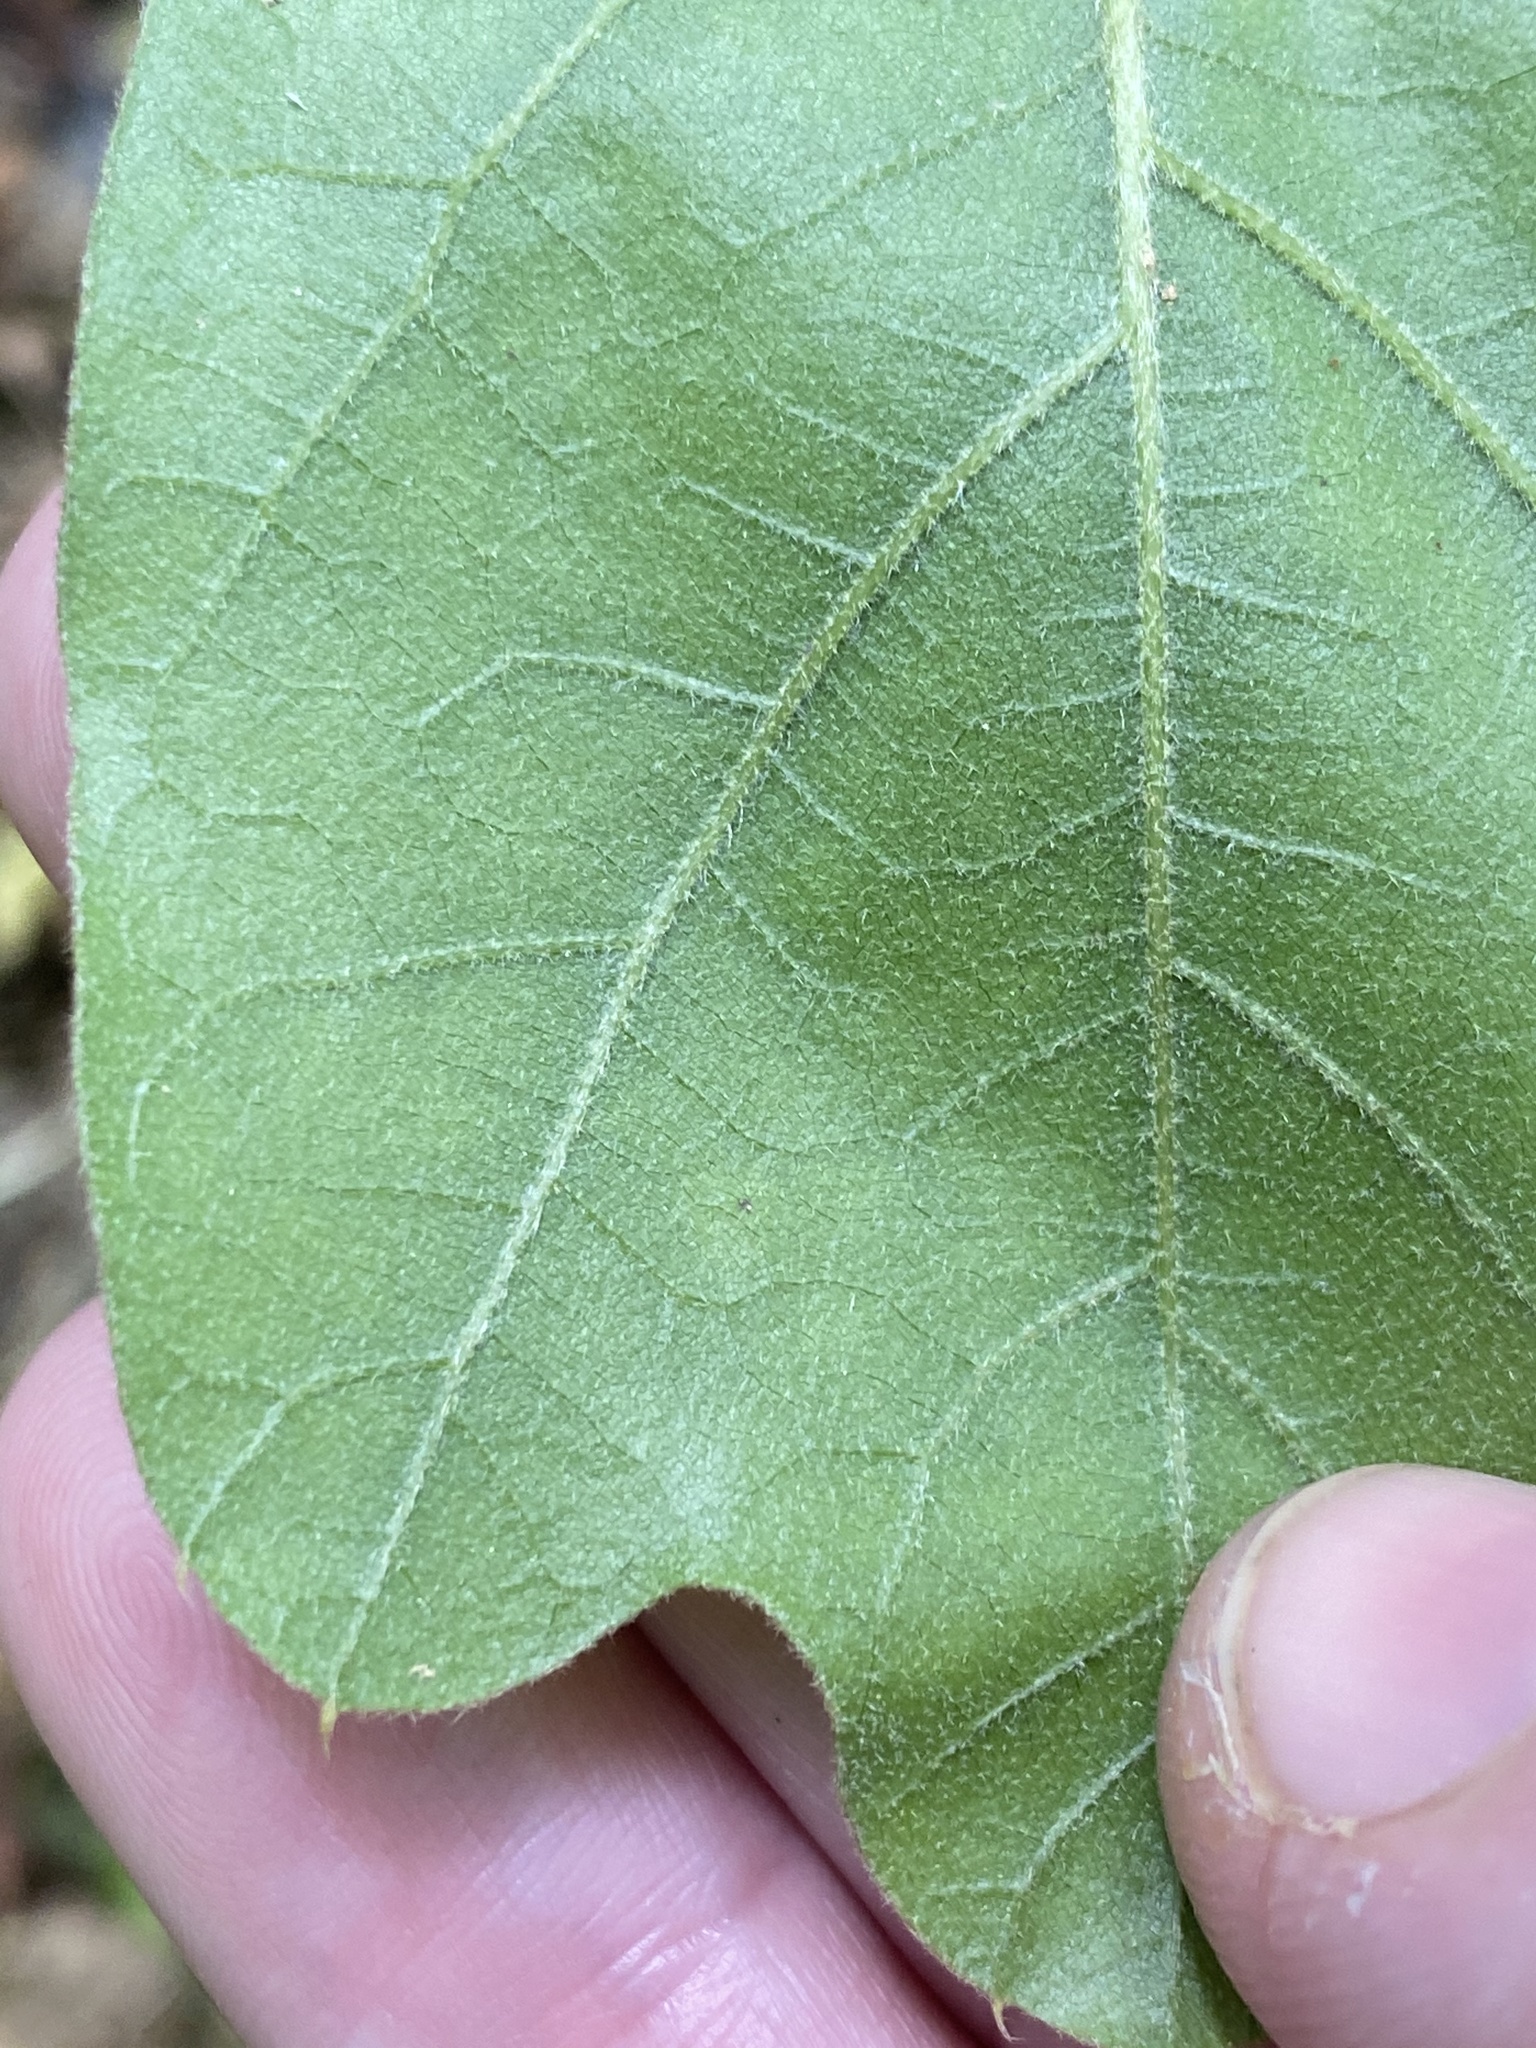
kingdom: Plantae
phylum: Tracheophyta
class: Magnoliopsida
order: Fagales
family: Fagaceae
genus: Quercus
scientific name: Quercus falcata
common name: Southern red oak
